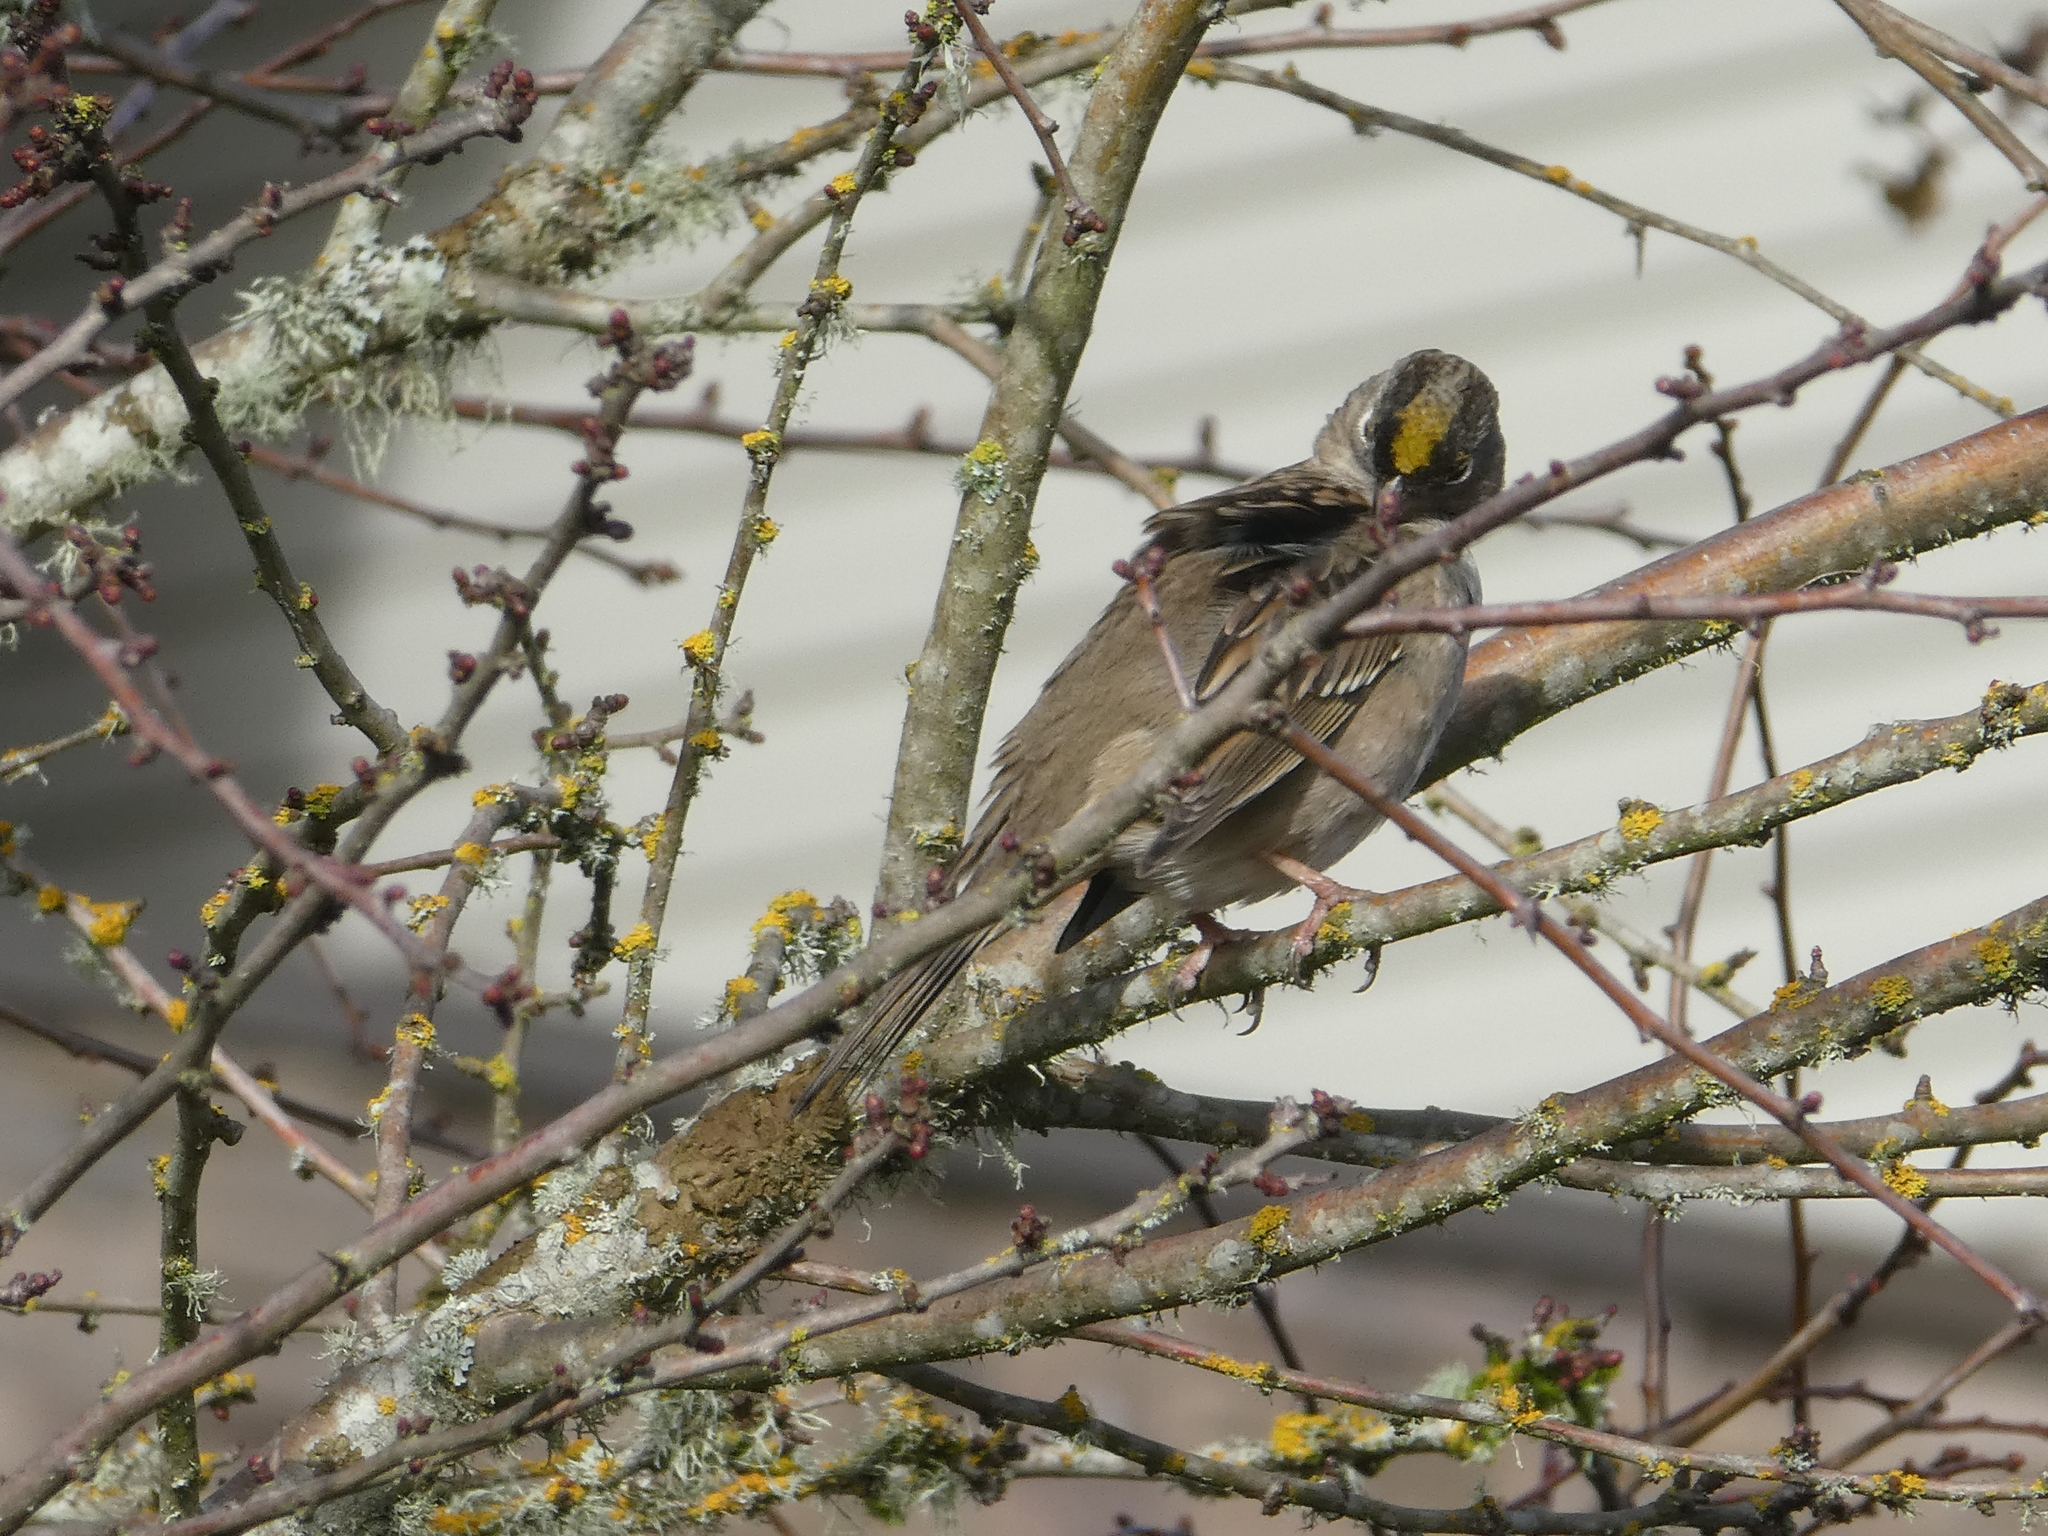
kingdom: Animalia
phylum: Chordata
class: Aves
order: Passeriformes
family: Passerellidae
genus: Zonotrichia
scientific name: Zonotrichia atricapilla
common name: Golden-crowned sparrow
